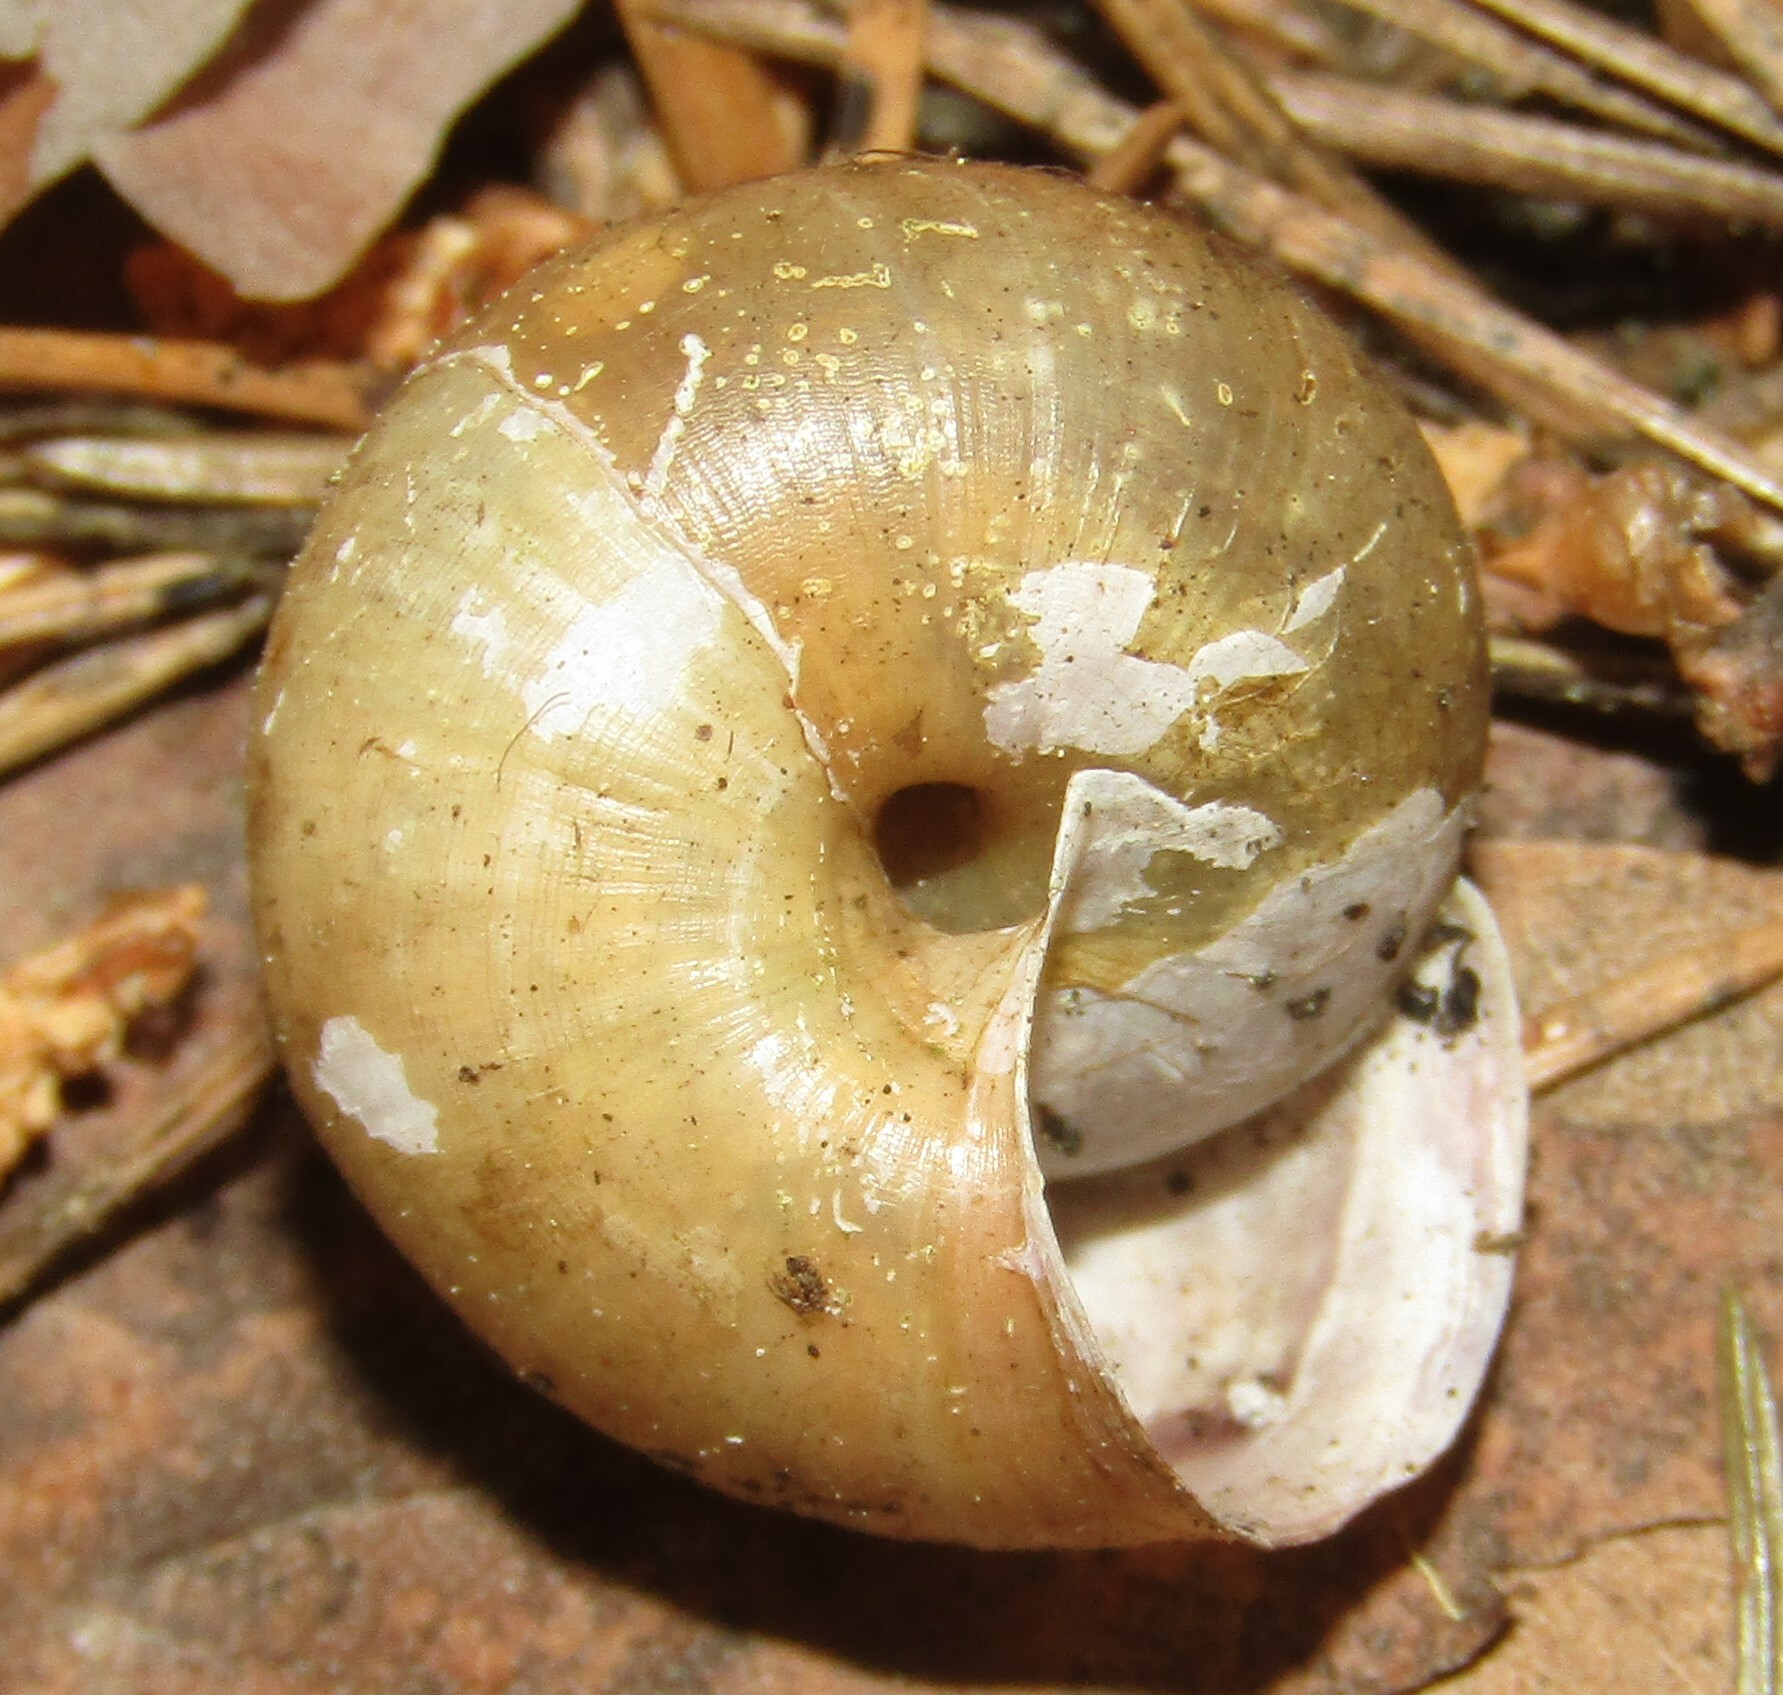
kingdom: Animalia
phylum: Mollusca
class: Gastropoda
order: Stylommatophora
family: Camaenidae
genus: Fruticicola
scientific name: Fruticicola fruticum
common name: Bush snail
